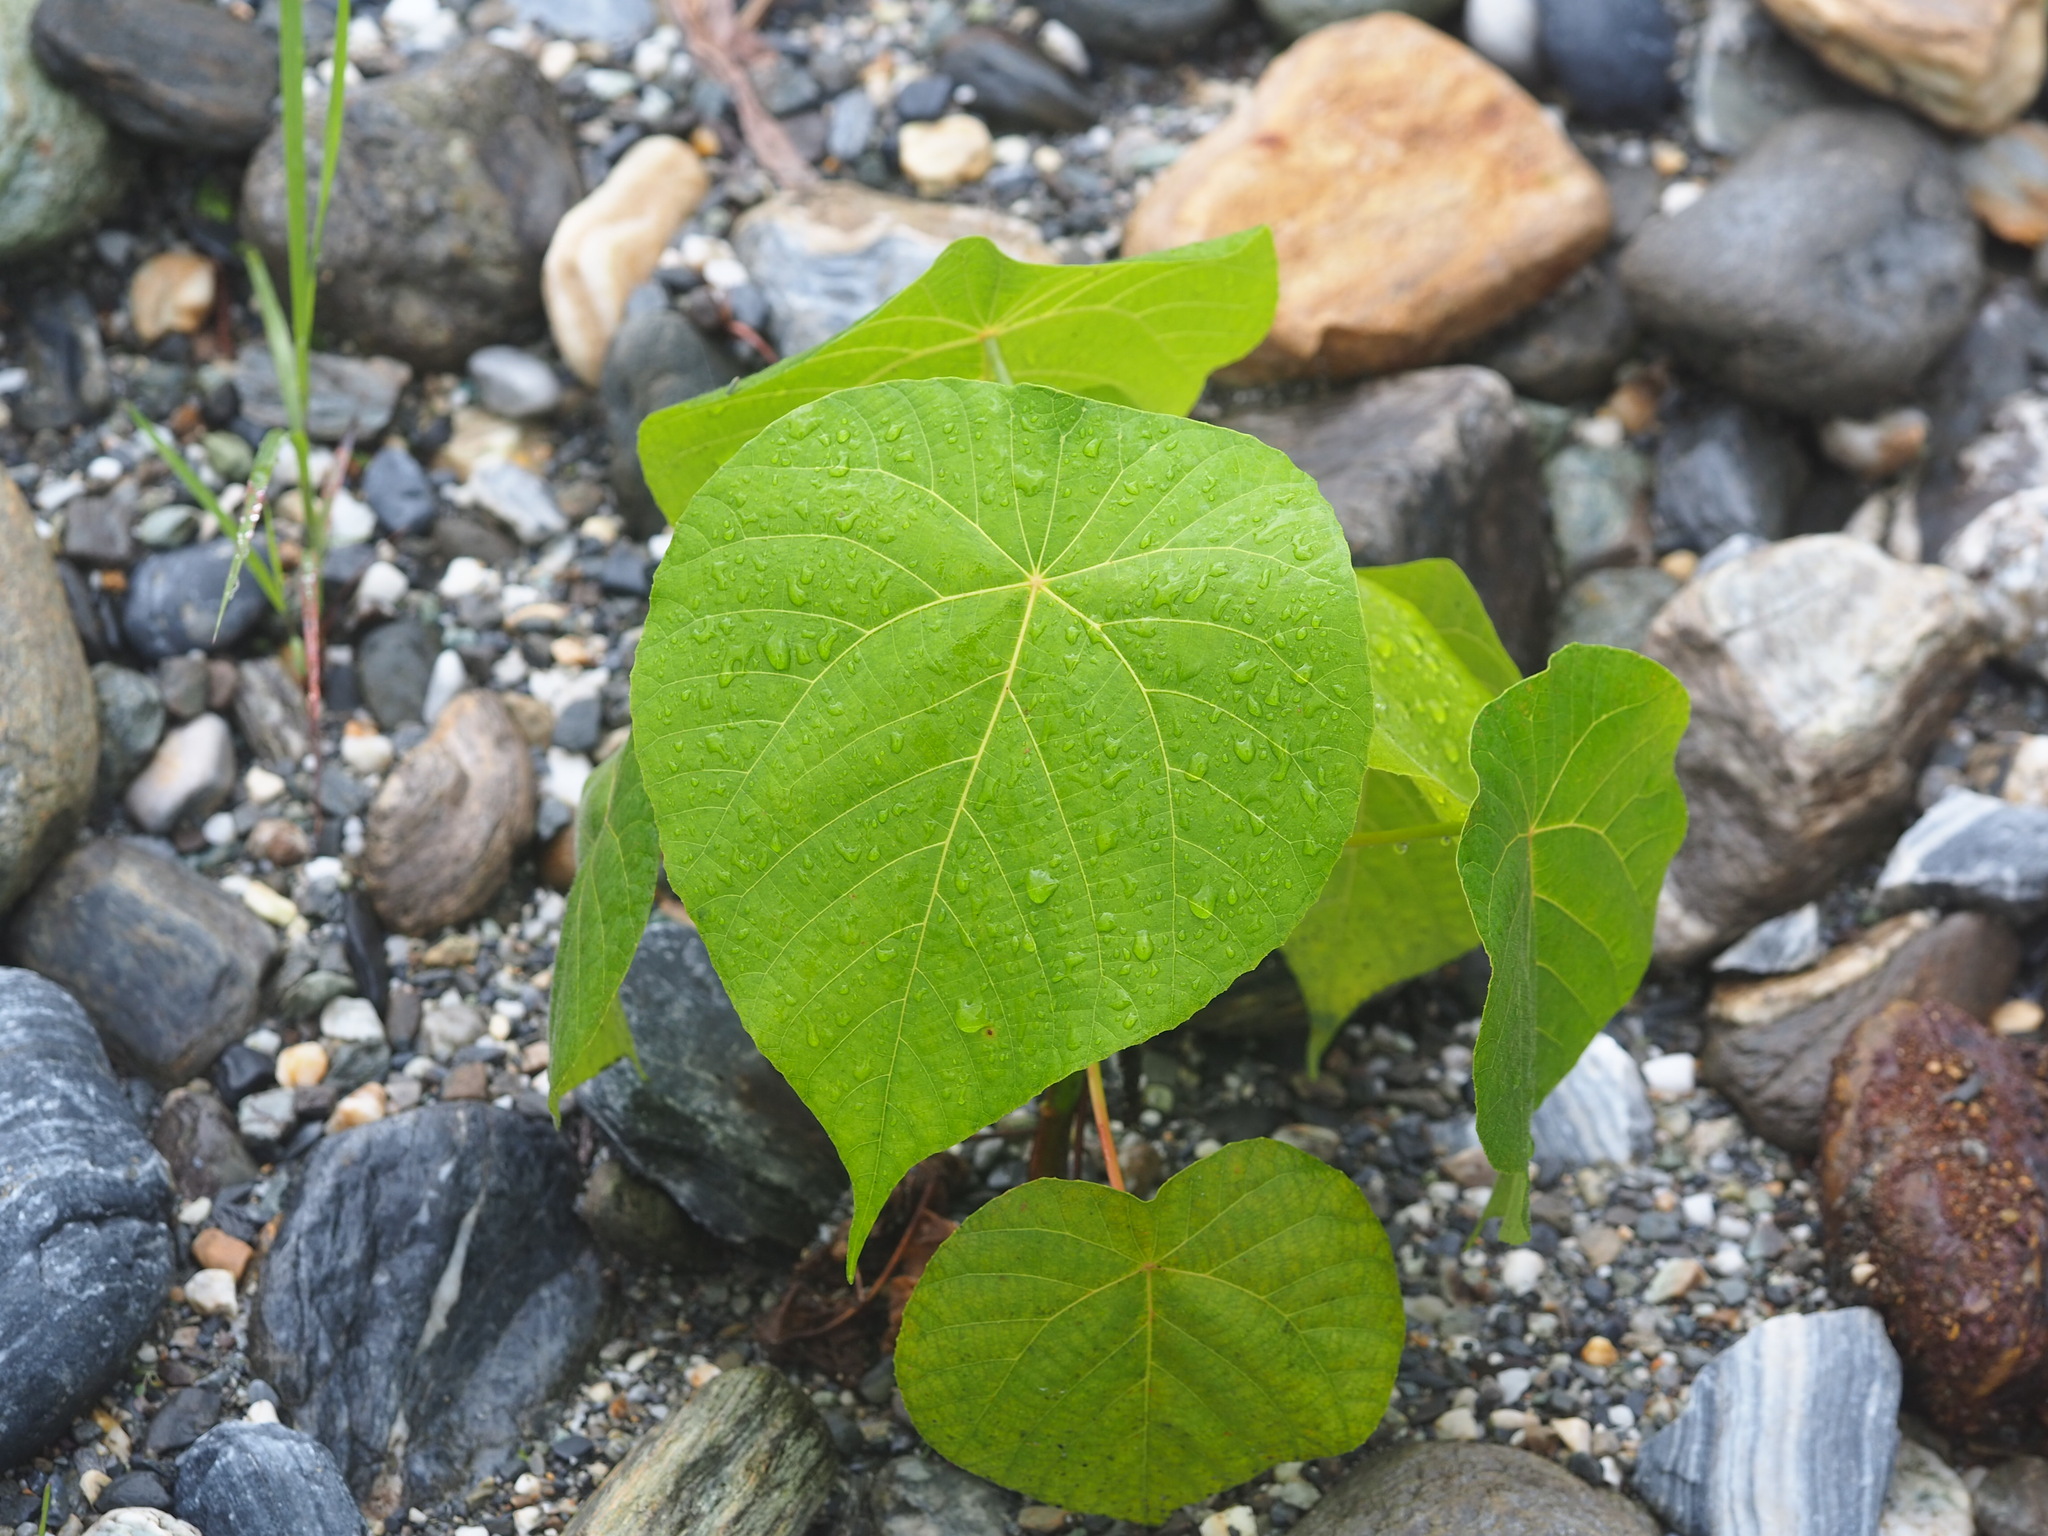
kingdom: Plantae
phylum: Tracheophyta
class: Magnoliopsida
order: Malpighiales
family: Euphorbiaceae
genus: Macaranga
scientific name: Macaranga tanarius
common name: Parasol leaf tree
